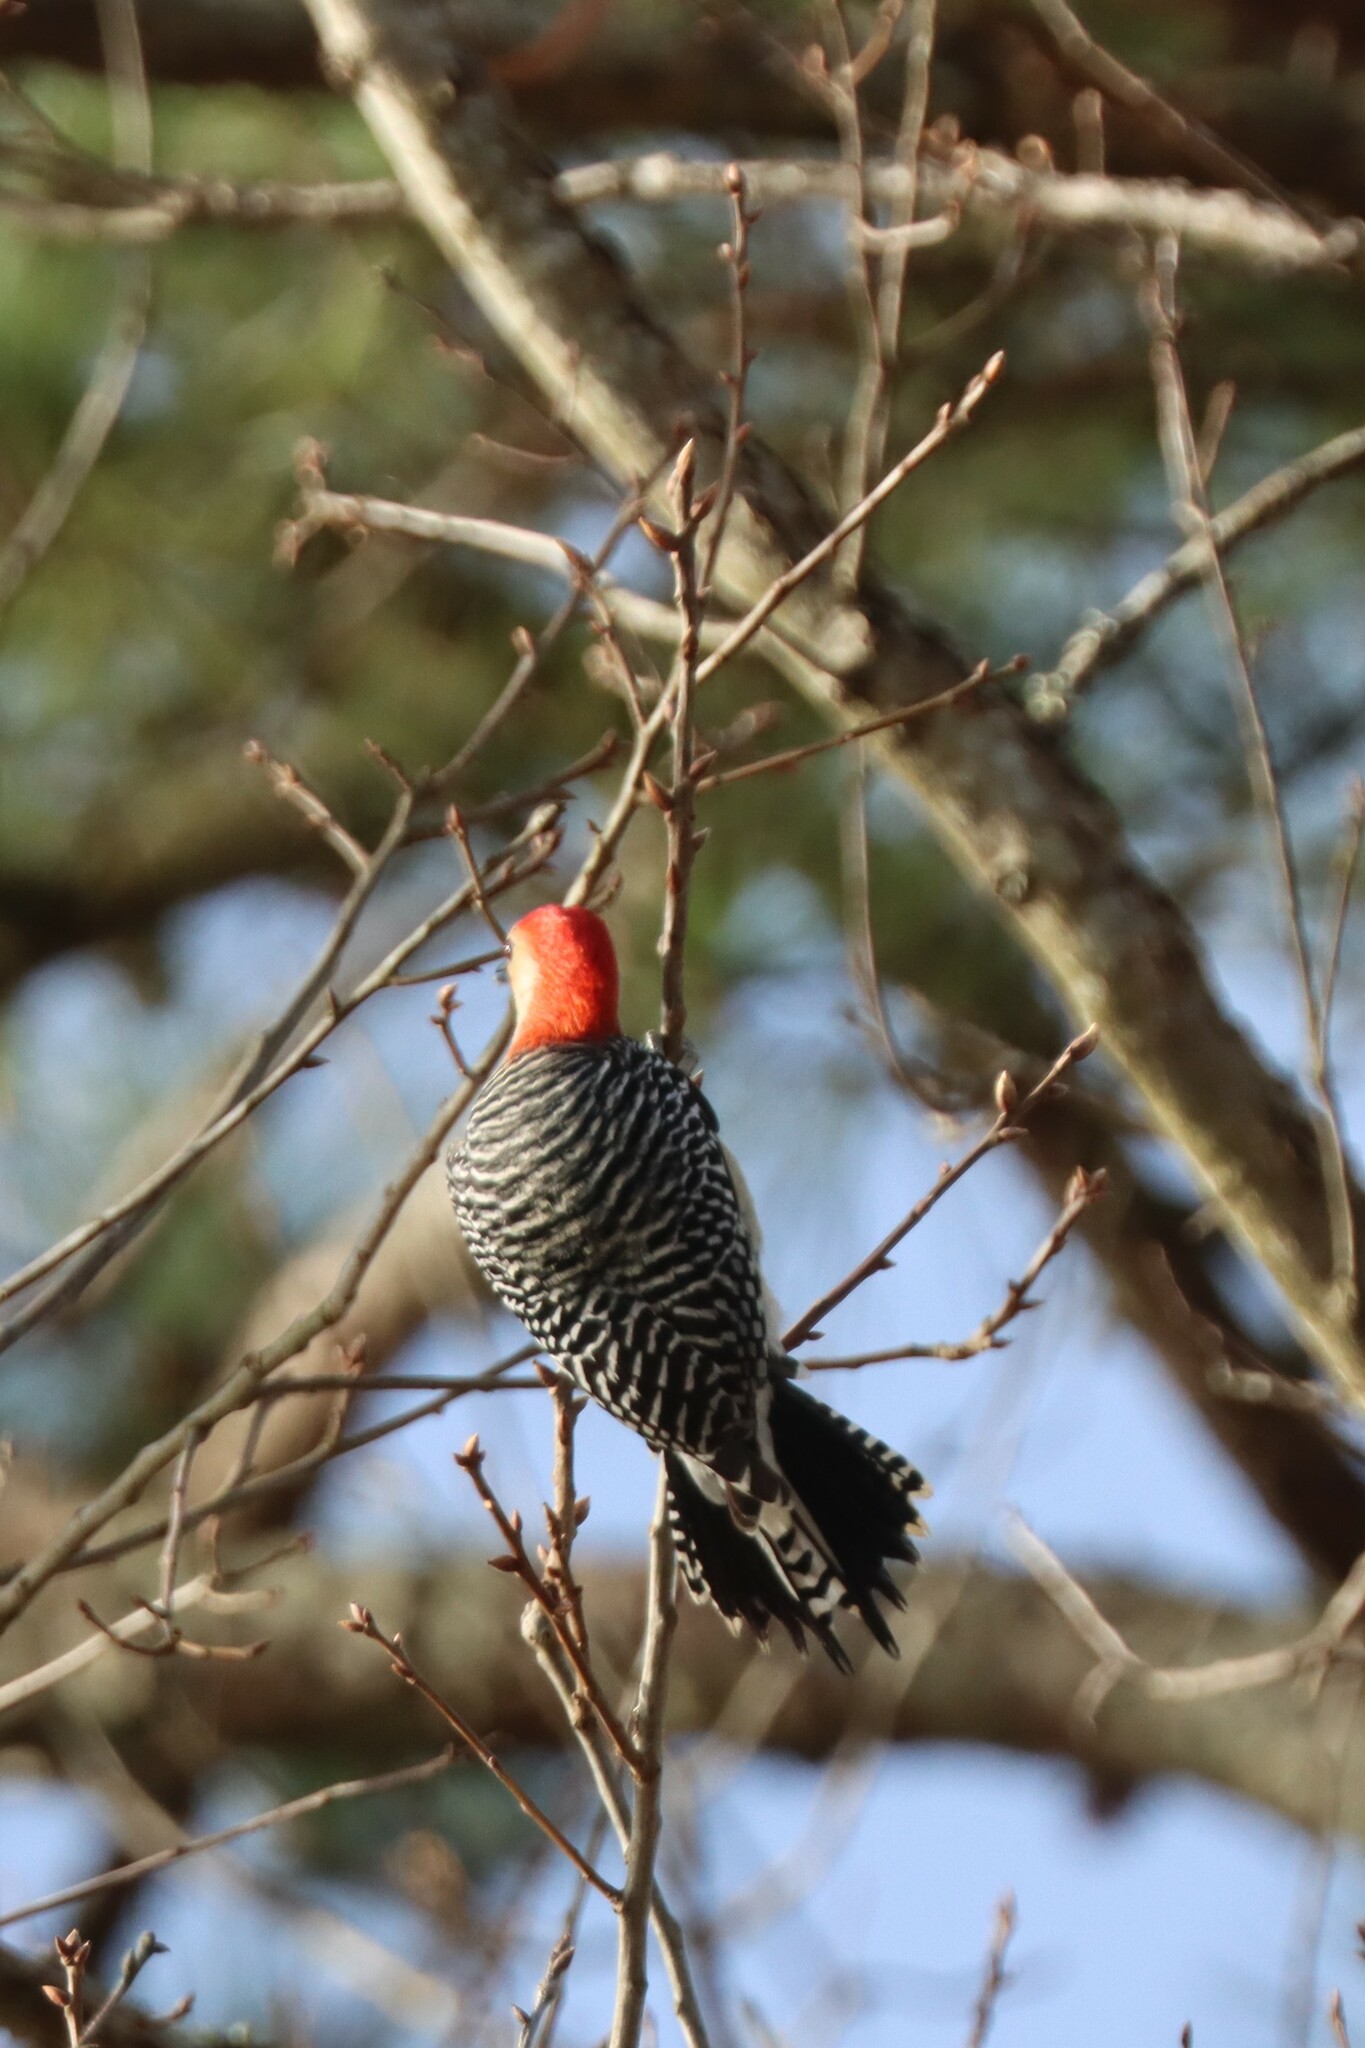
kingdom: Animalia
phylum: Chordata
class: Aves
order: Piciformes
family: Picidae
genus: Melanerpes
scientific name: Melanerpes carolinus
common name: Red-bellied woodpecker
